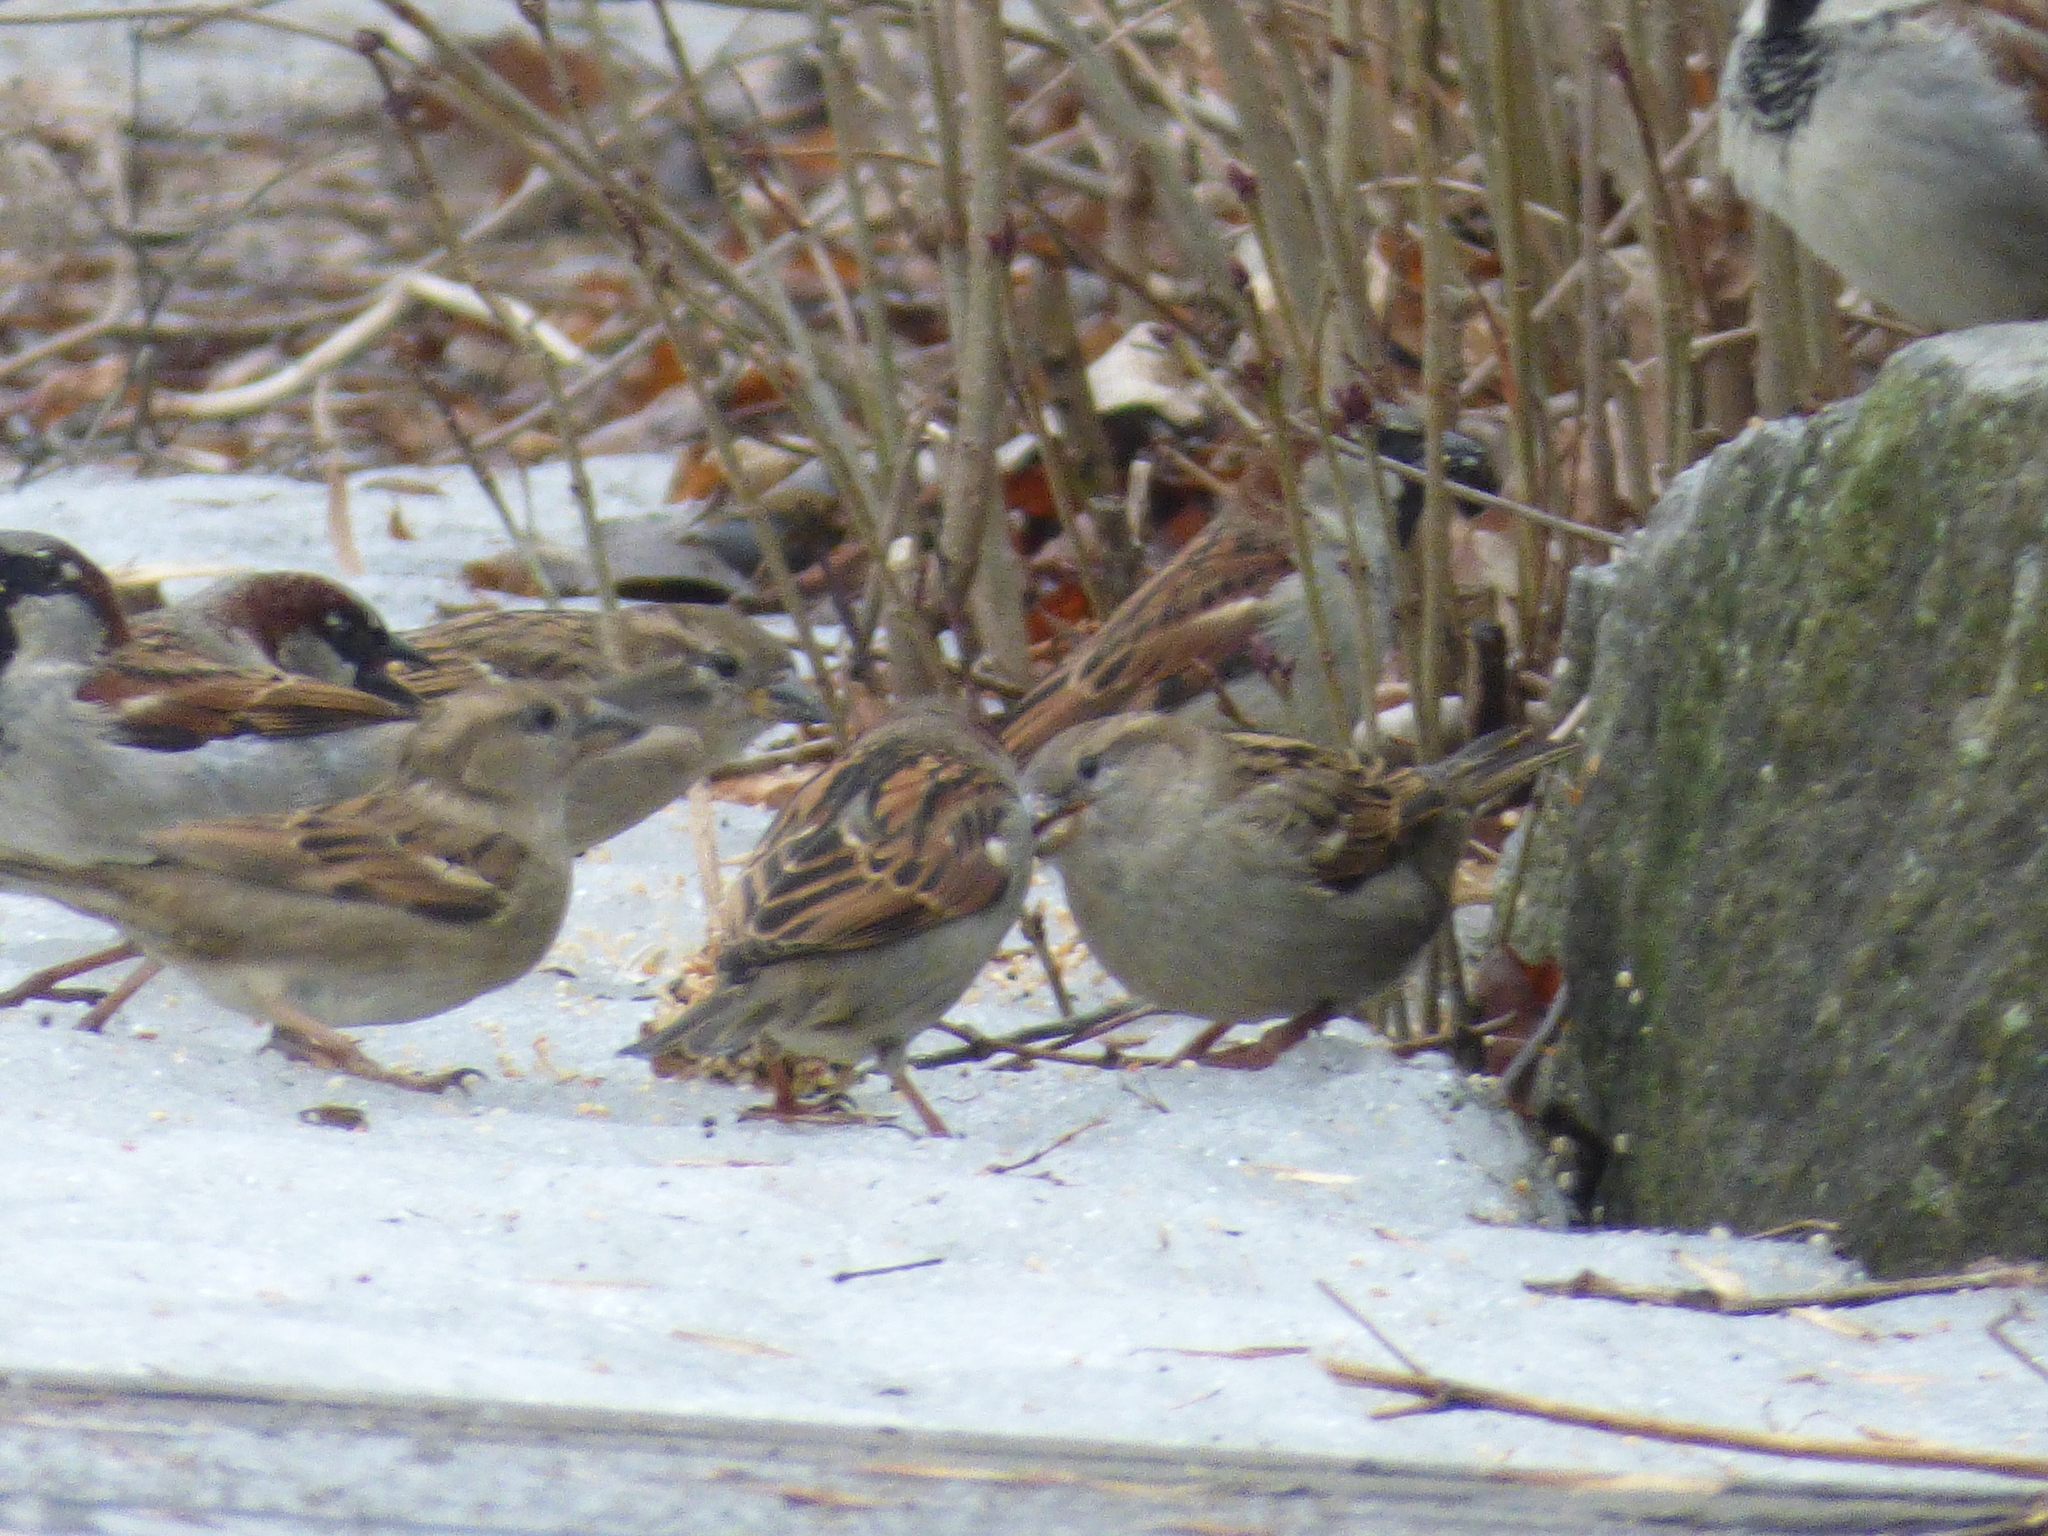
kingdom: Animalia
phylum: Chordata
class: Aves
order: Passeriformes
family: Passeridae
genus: Passer
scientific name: Passer domesticus
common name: House sparrow
